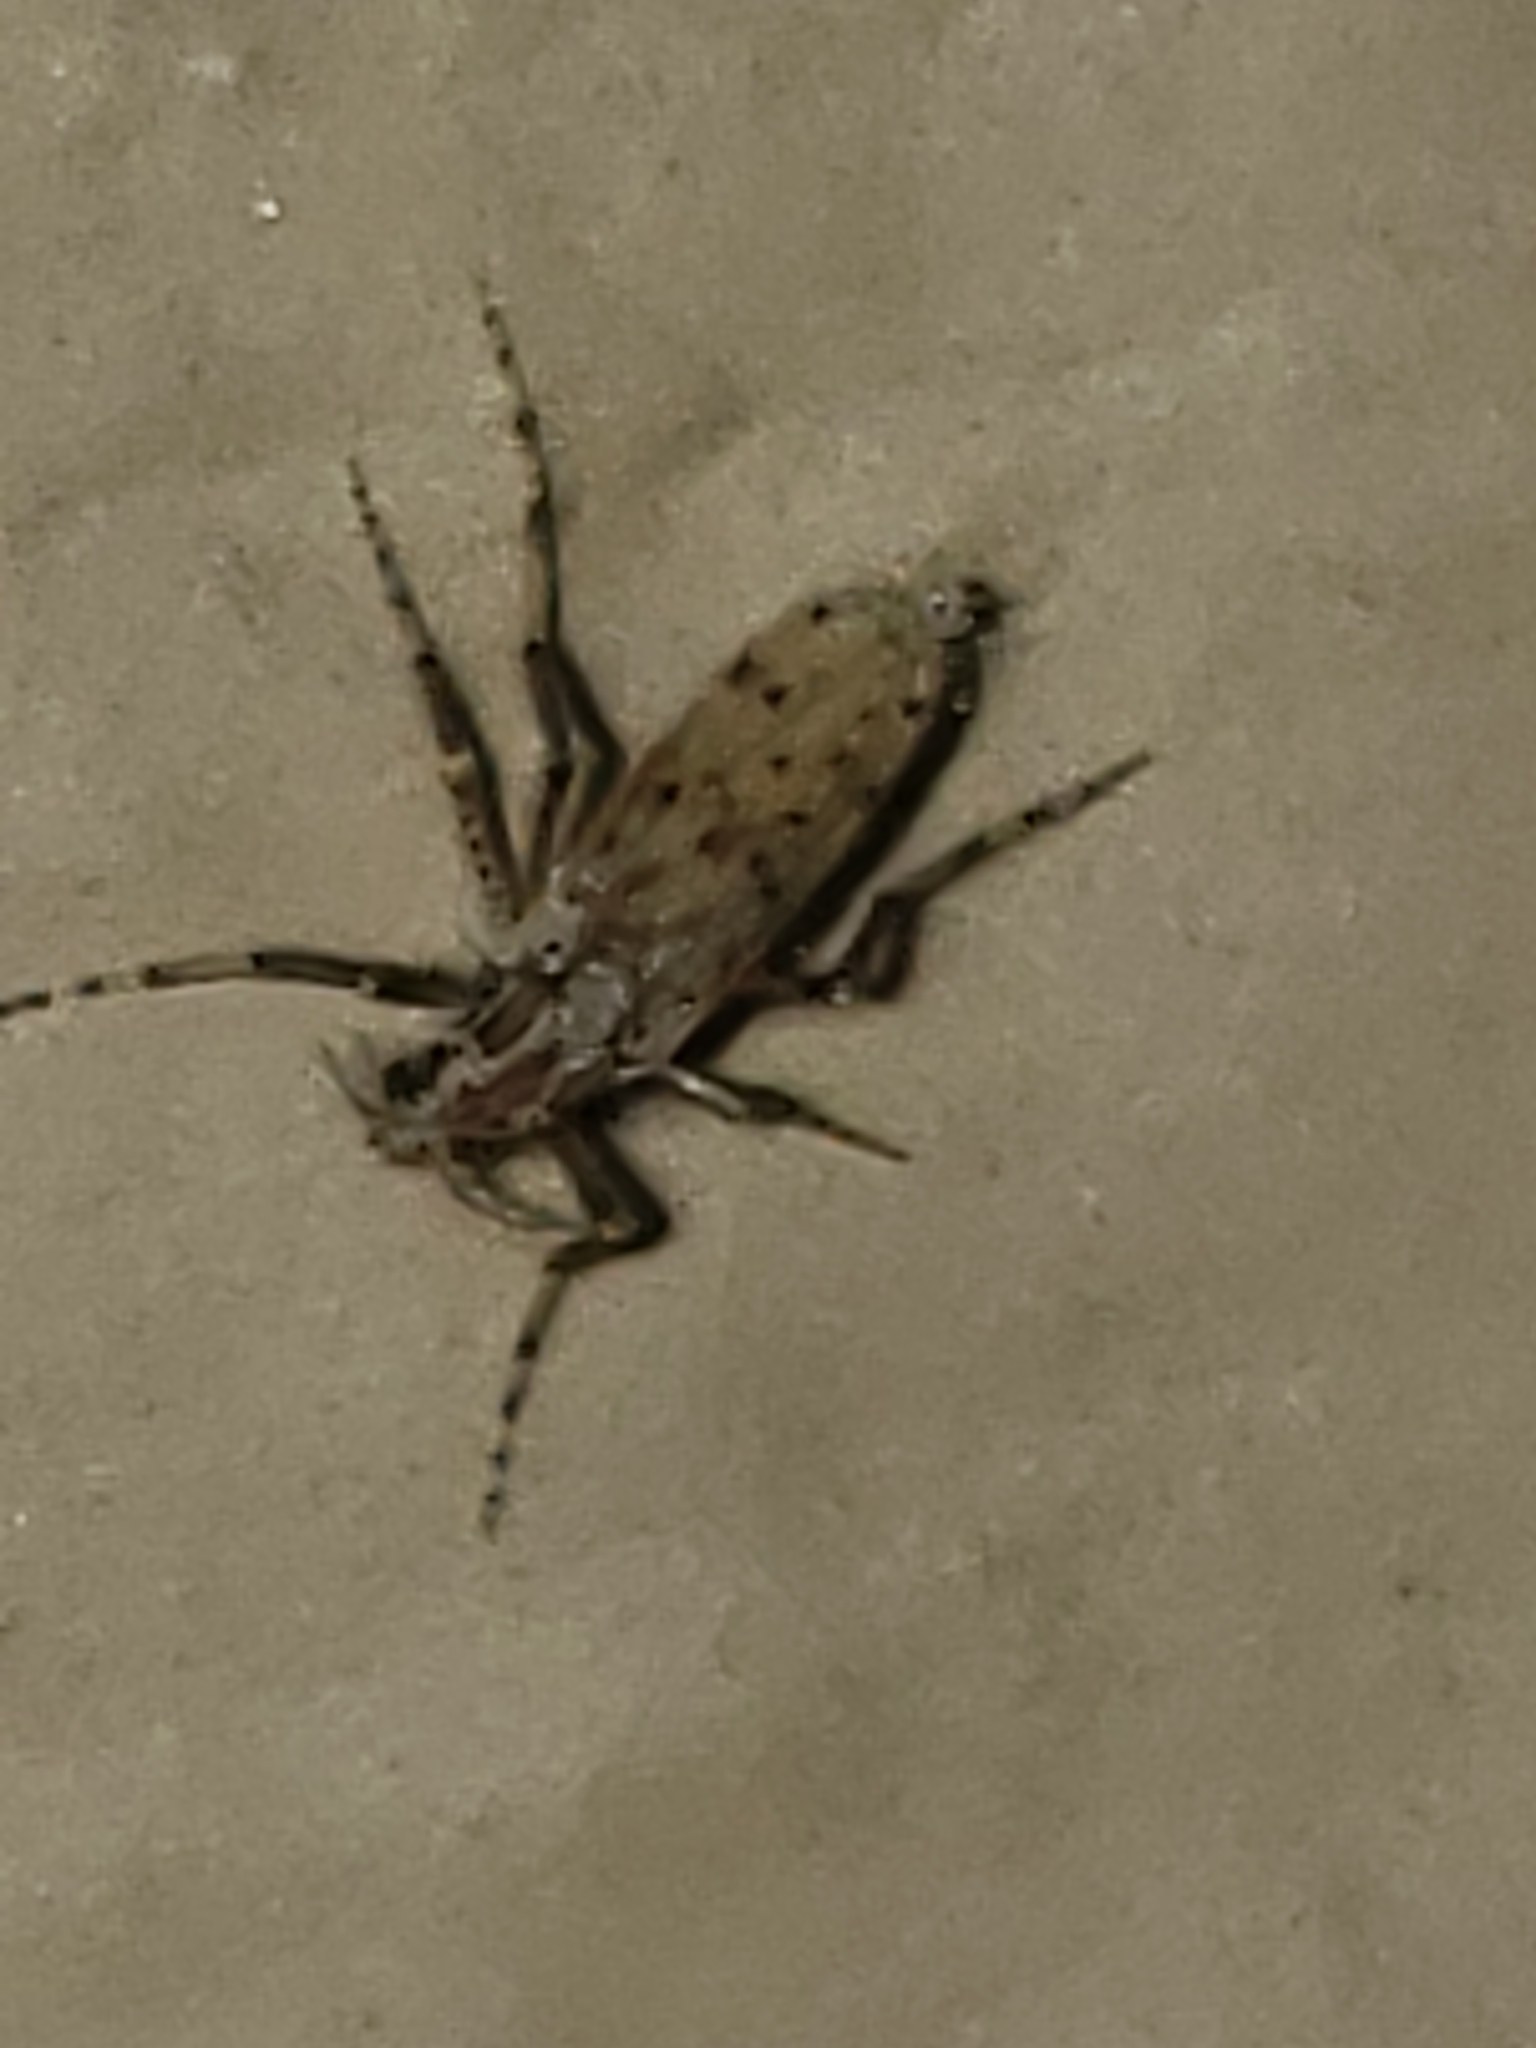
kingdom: Animalia
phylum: Arthropoda
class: Insecta
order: Diptera
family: Chaoboridae
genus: Chaoborus
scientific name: Chaoborus punctipennis
